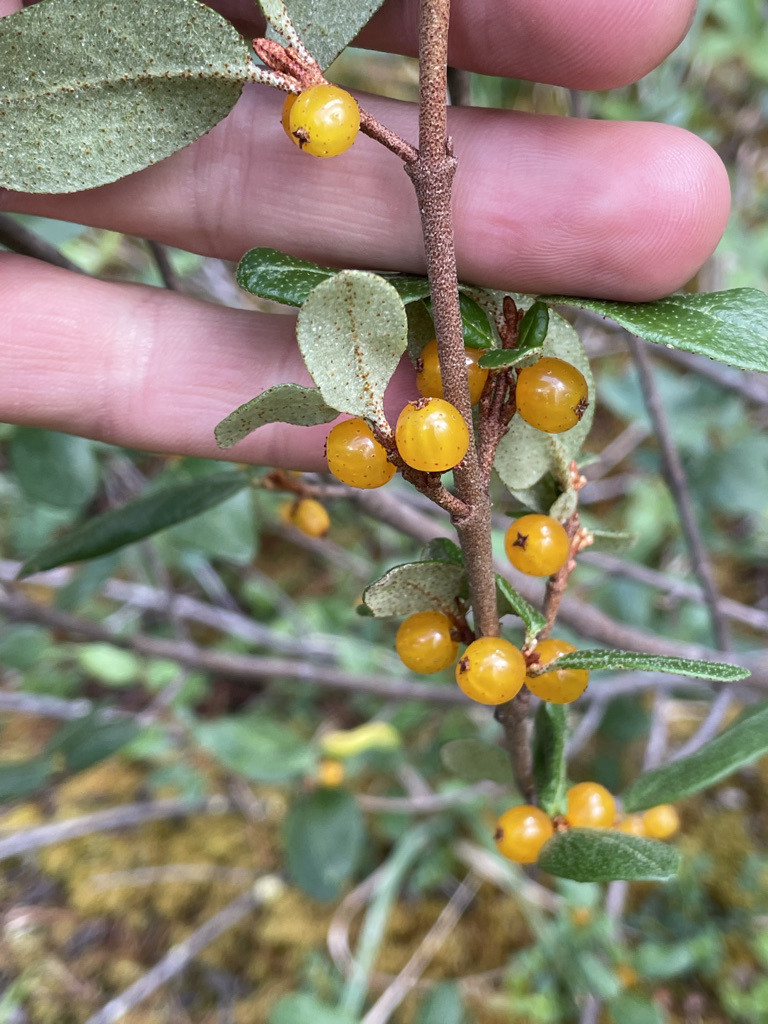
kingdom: Plantae
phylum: Tracheophyta
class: Magnoliopsida
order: Rosales
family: Elaeagnaceae
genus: Shepherdia
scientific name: Shepherdia canadensis
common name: Soapberry
